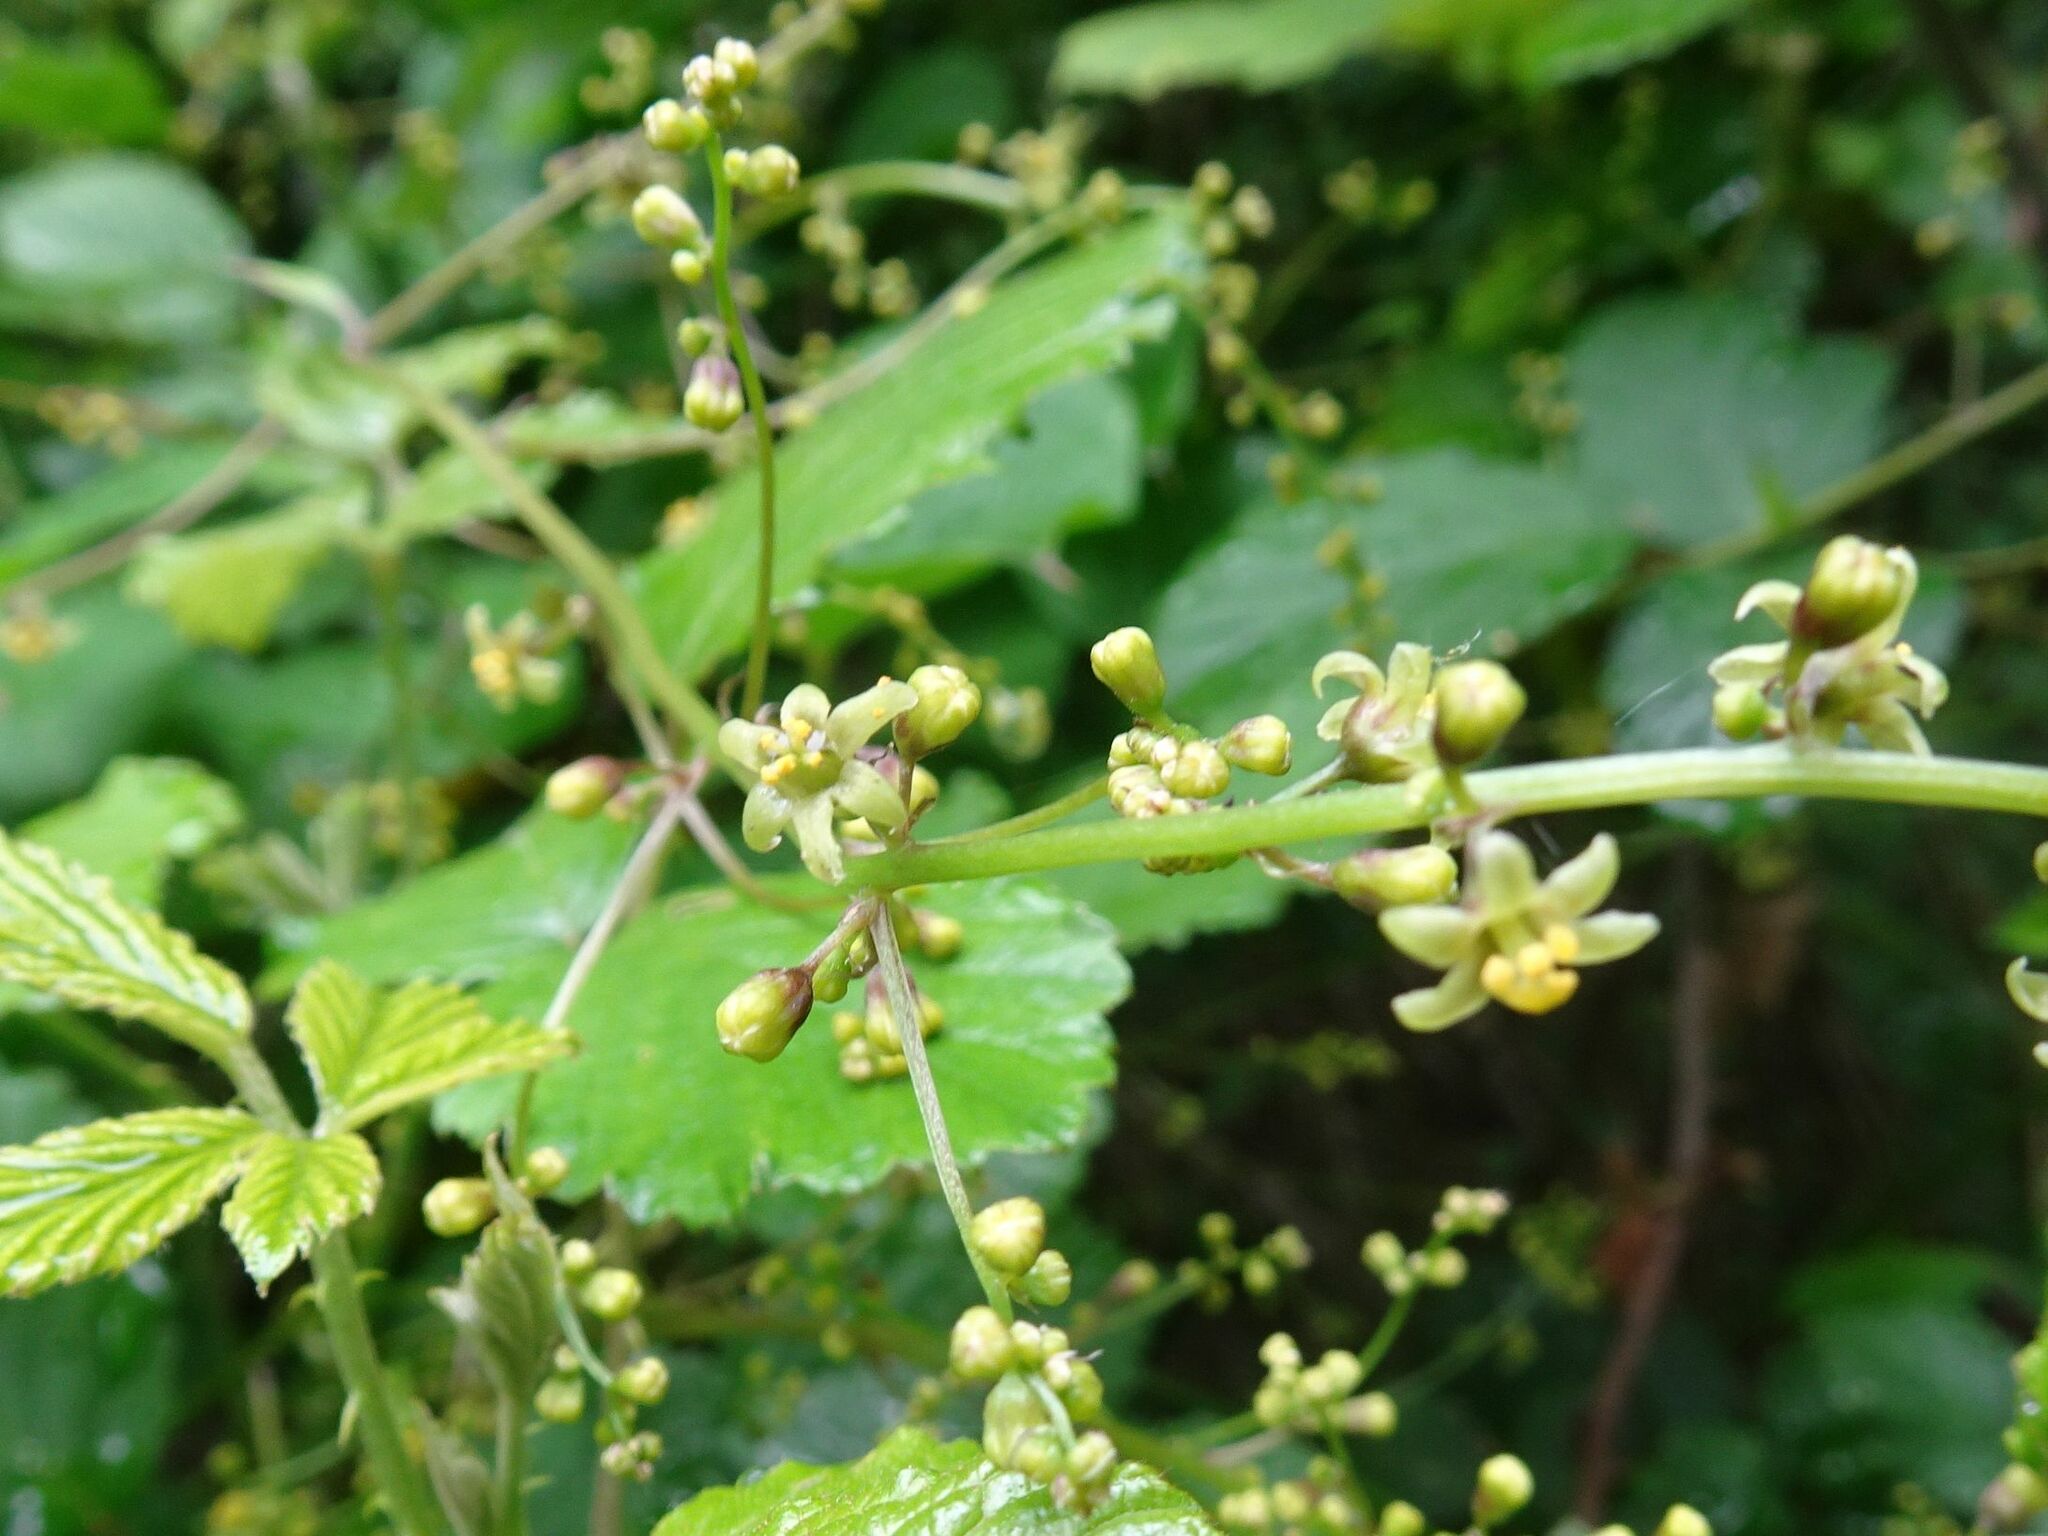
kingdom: Plantae
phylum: Tracheophyta
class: Liliopsida
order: Dioscoreales
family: Dioscoreaceae
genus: Dioscorea
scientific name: Dioscorea communis
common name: Black-bindweed
